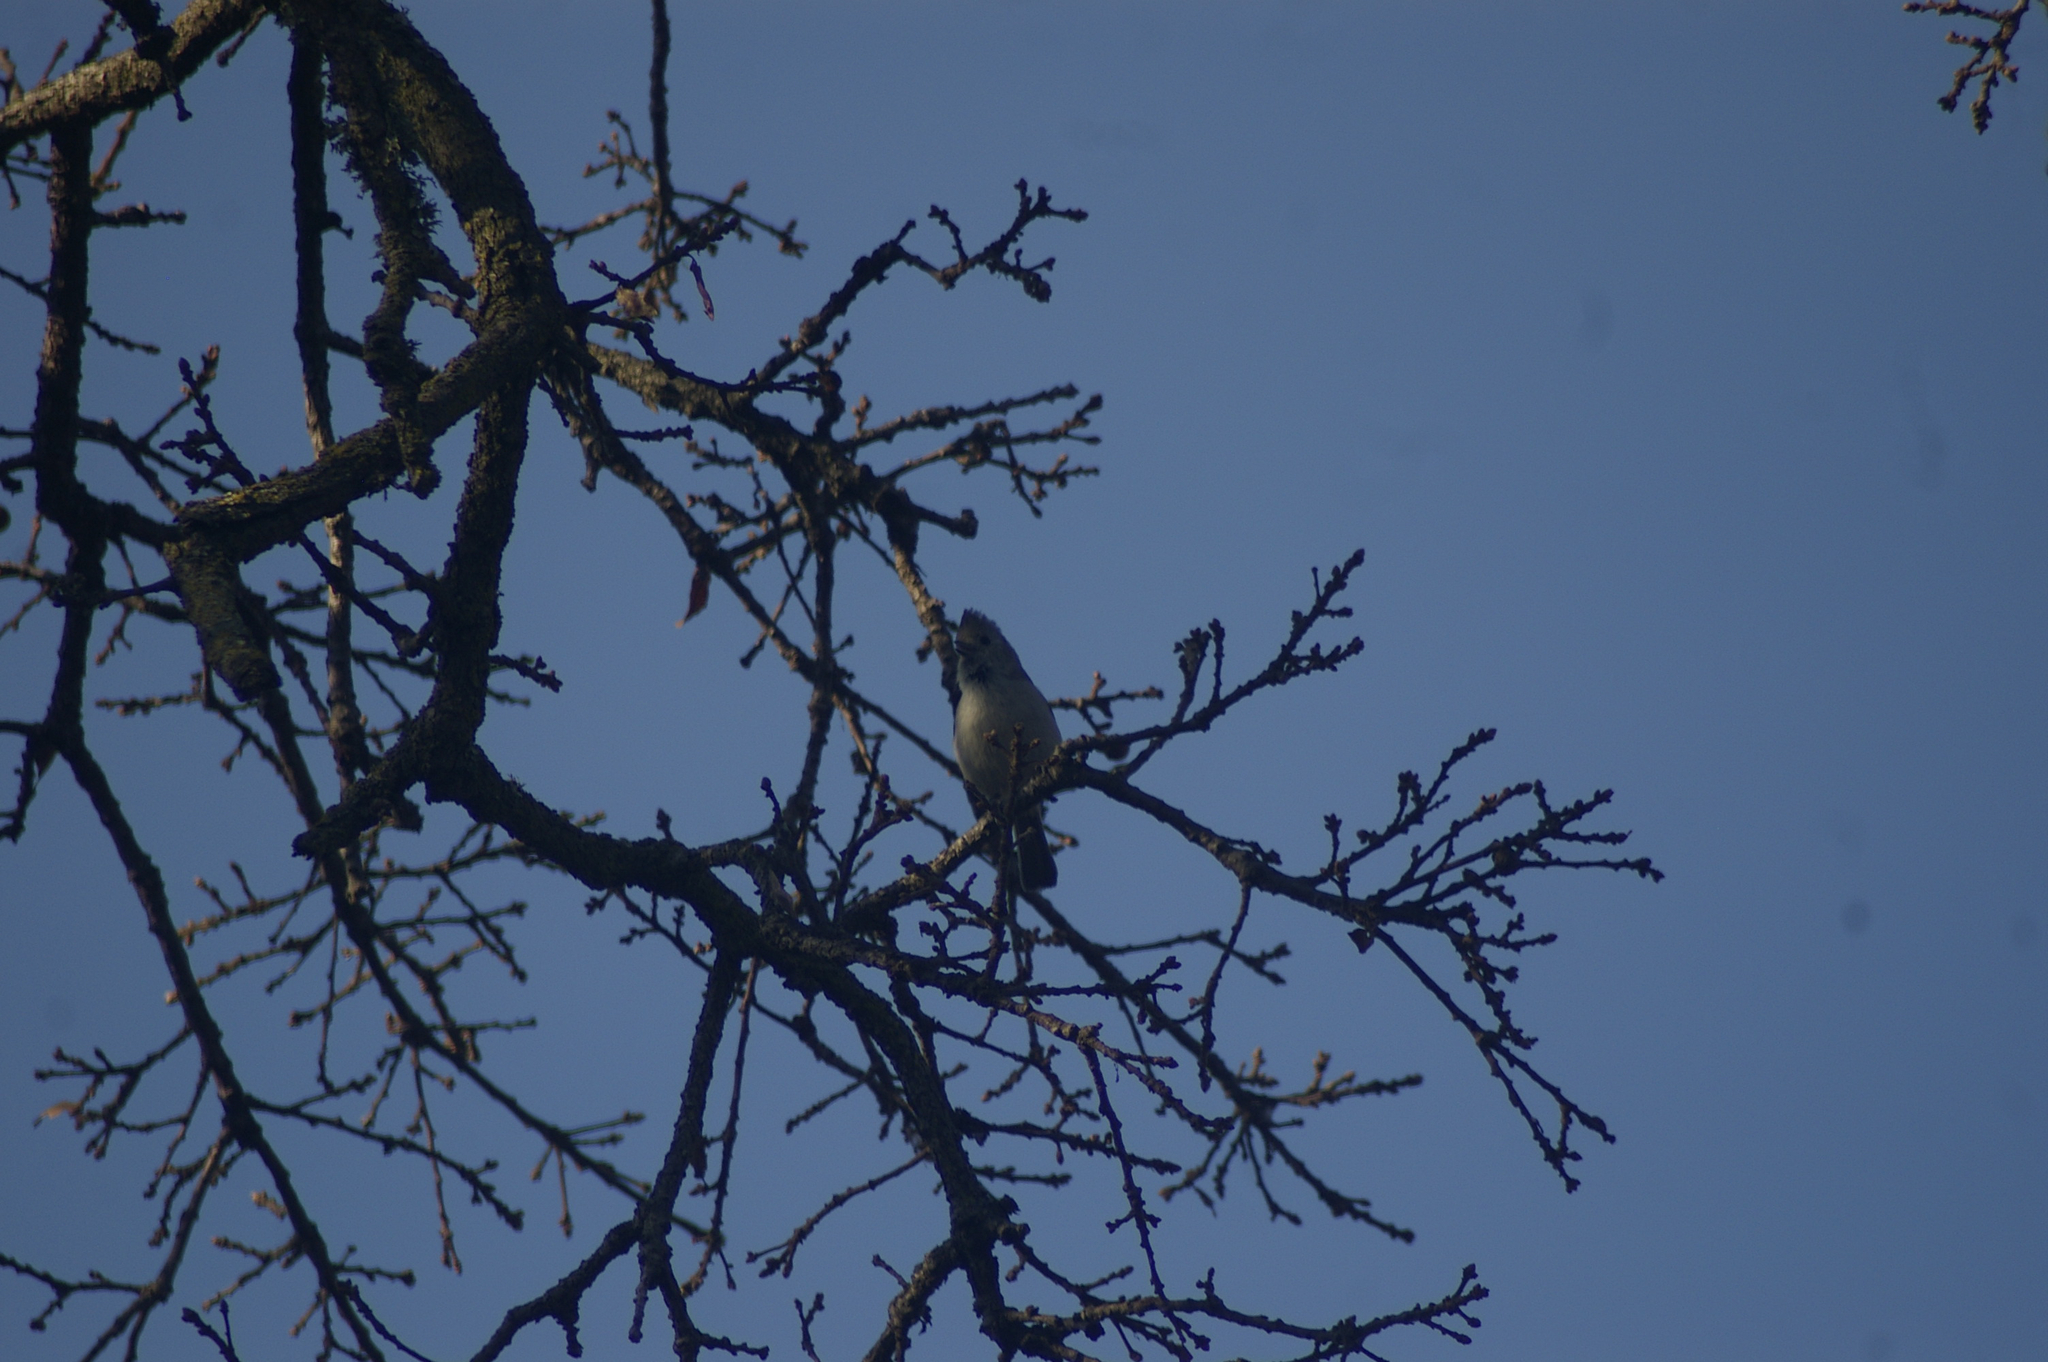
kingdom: Animalia
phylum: Chordata
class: Aves
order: Passeriformes
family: Paridae
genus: Baeolophus
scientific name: Baeolophus inornatus
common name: Oak titmouse
